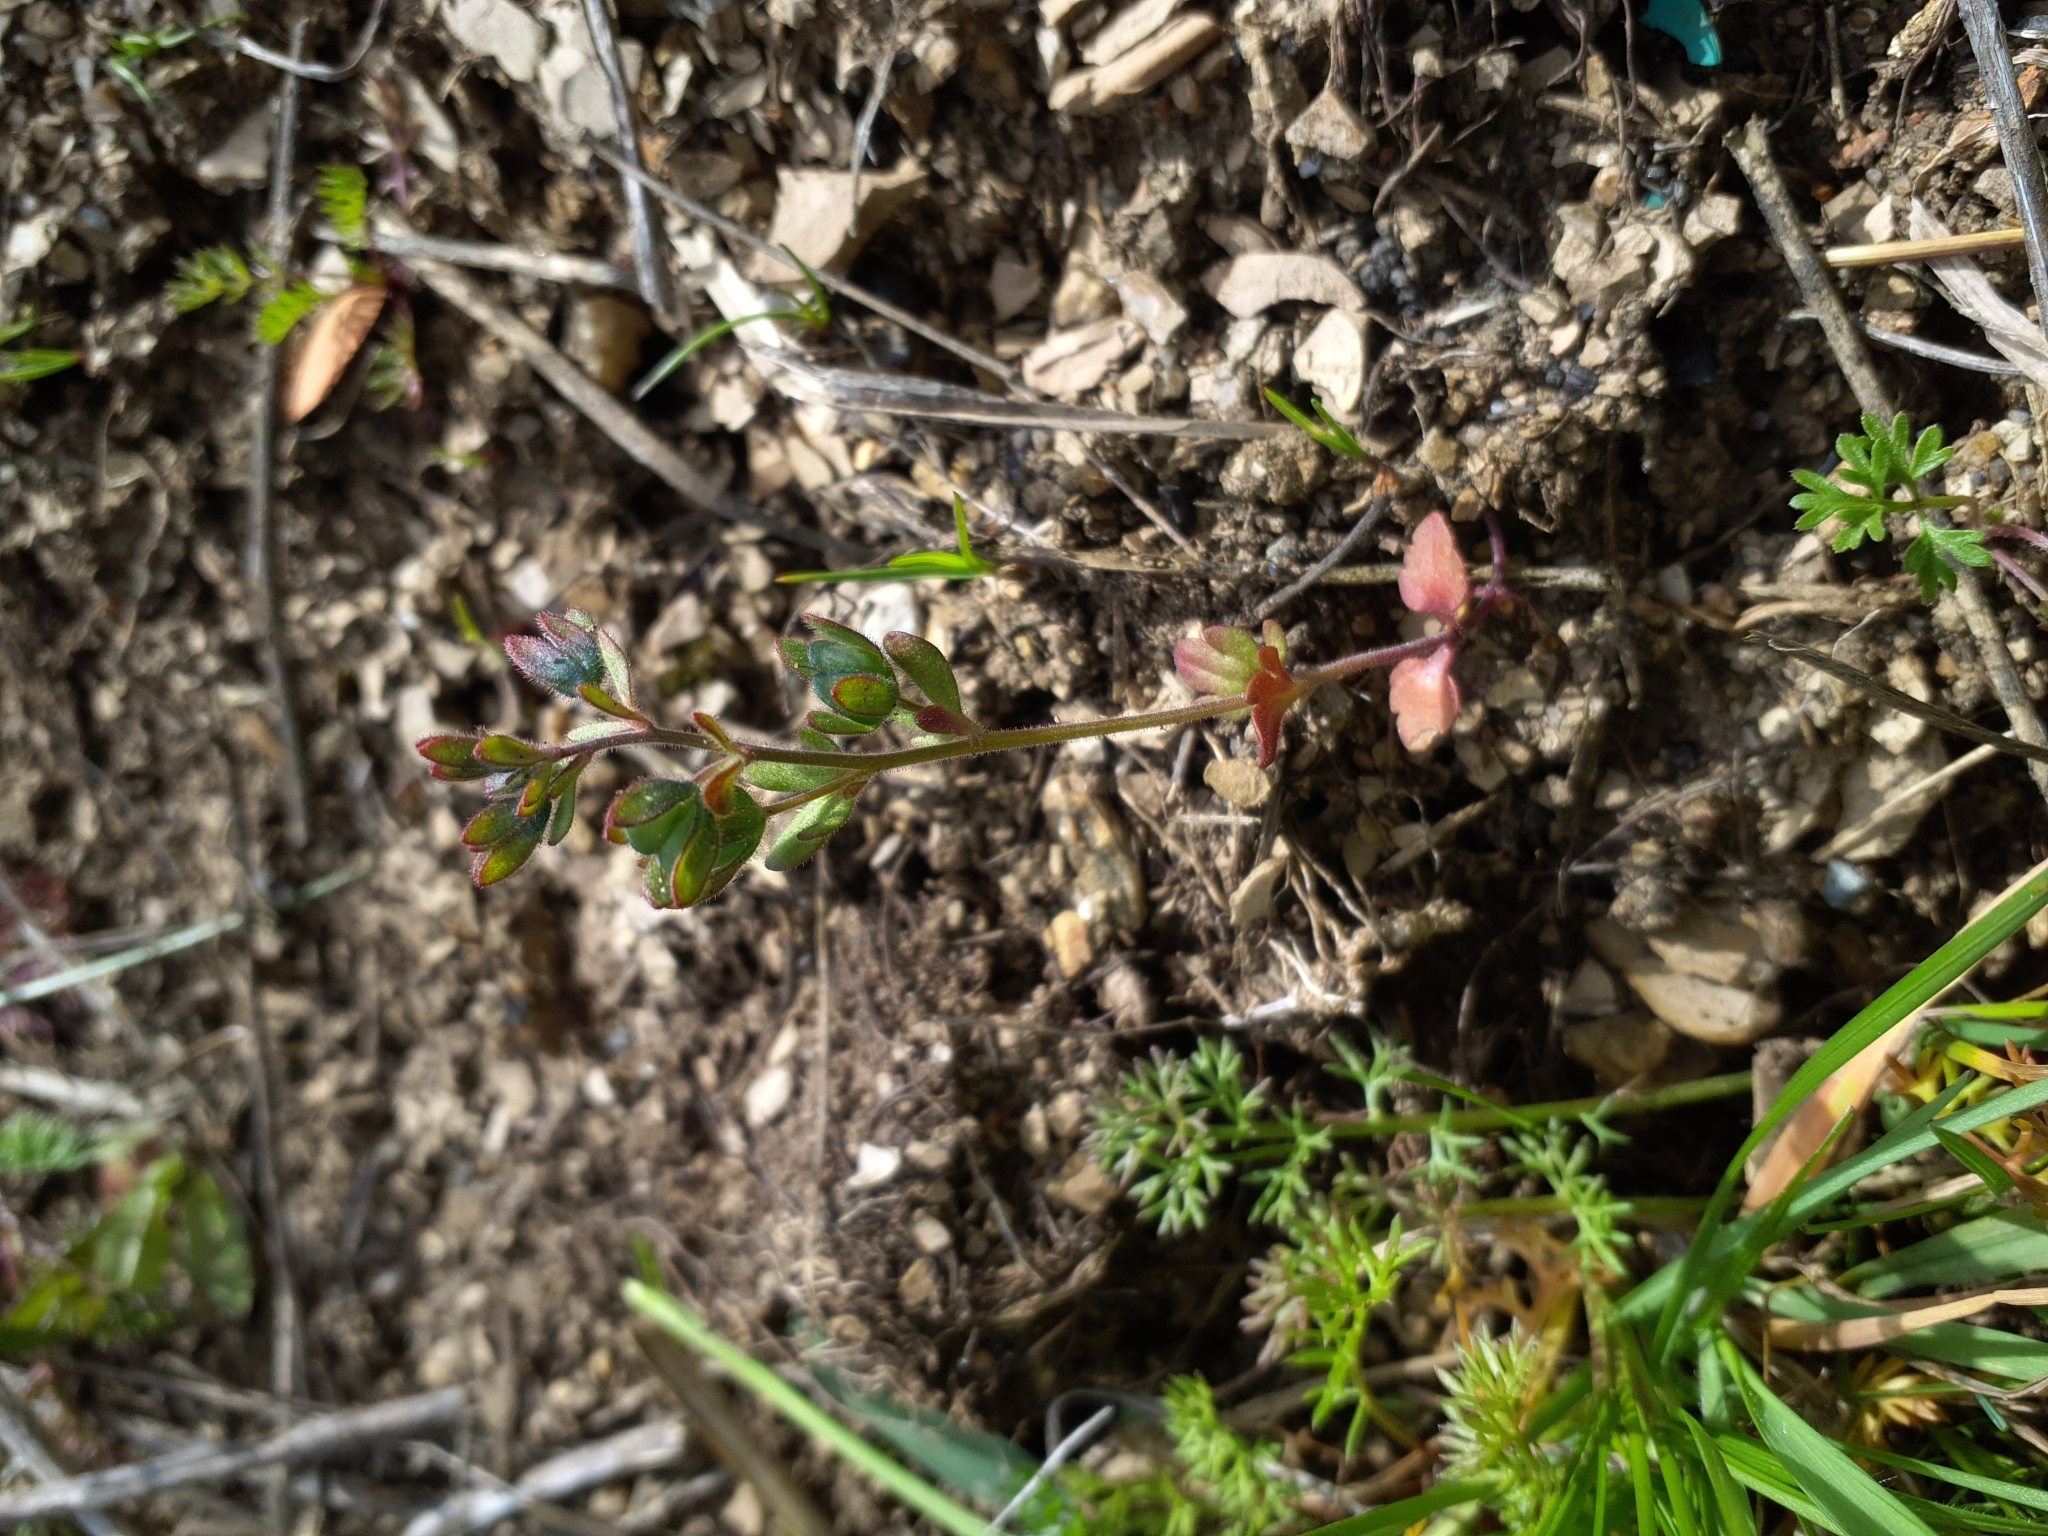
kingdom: Plantae
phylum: Tracheophyta
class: Magnoliopsida
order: Lamiales
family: Plantaginaceae
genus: Veronica
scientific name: Veronica triphyllos
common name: Fingered speedwell
